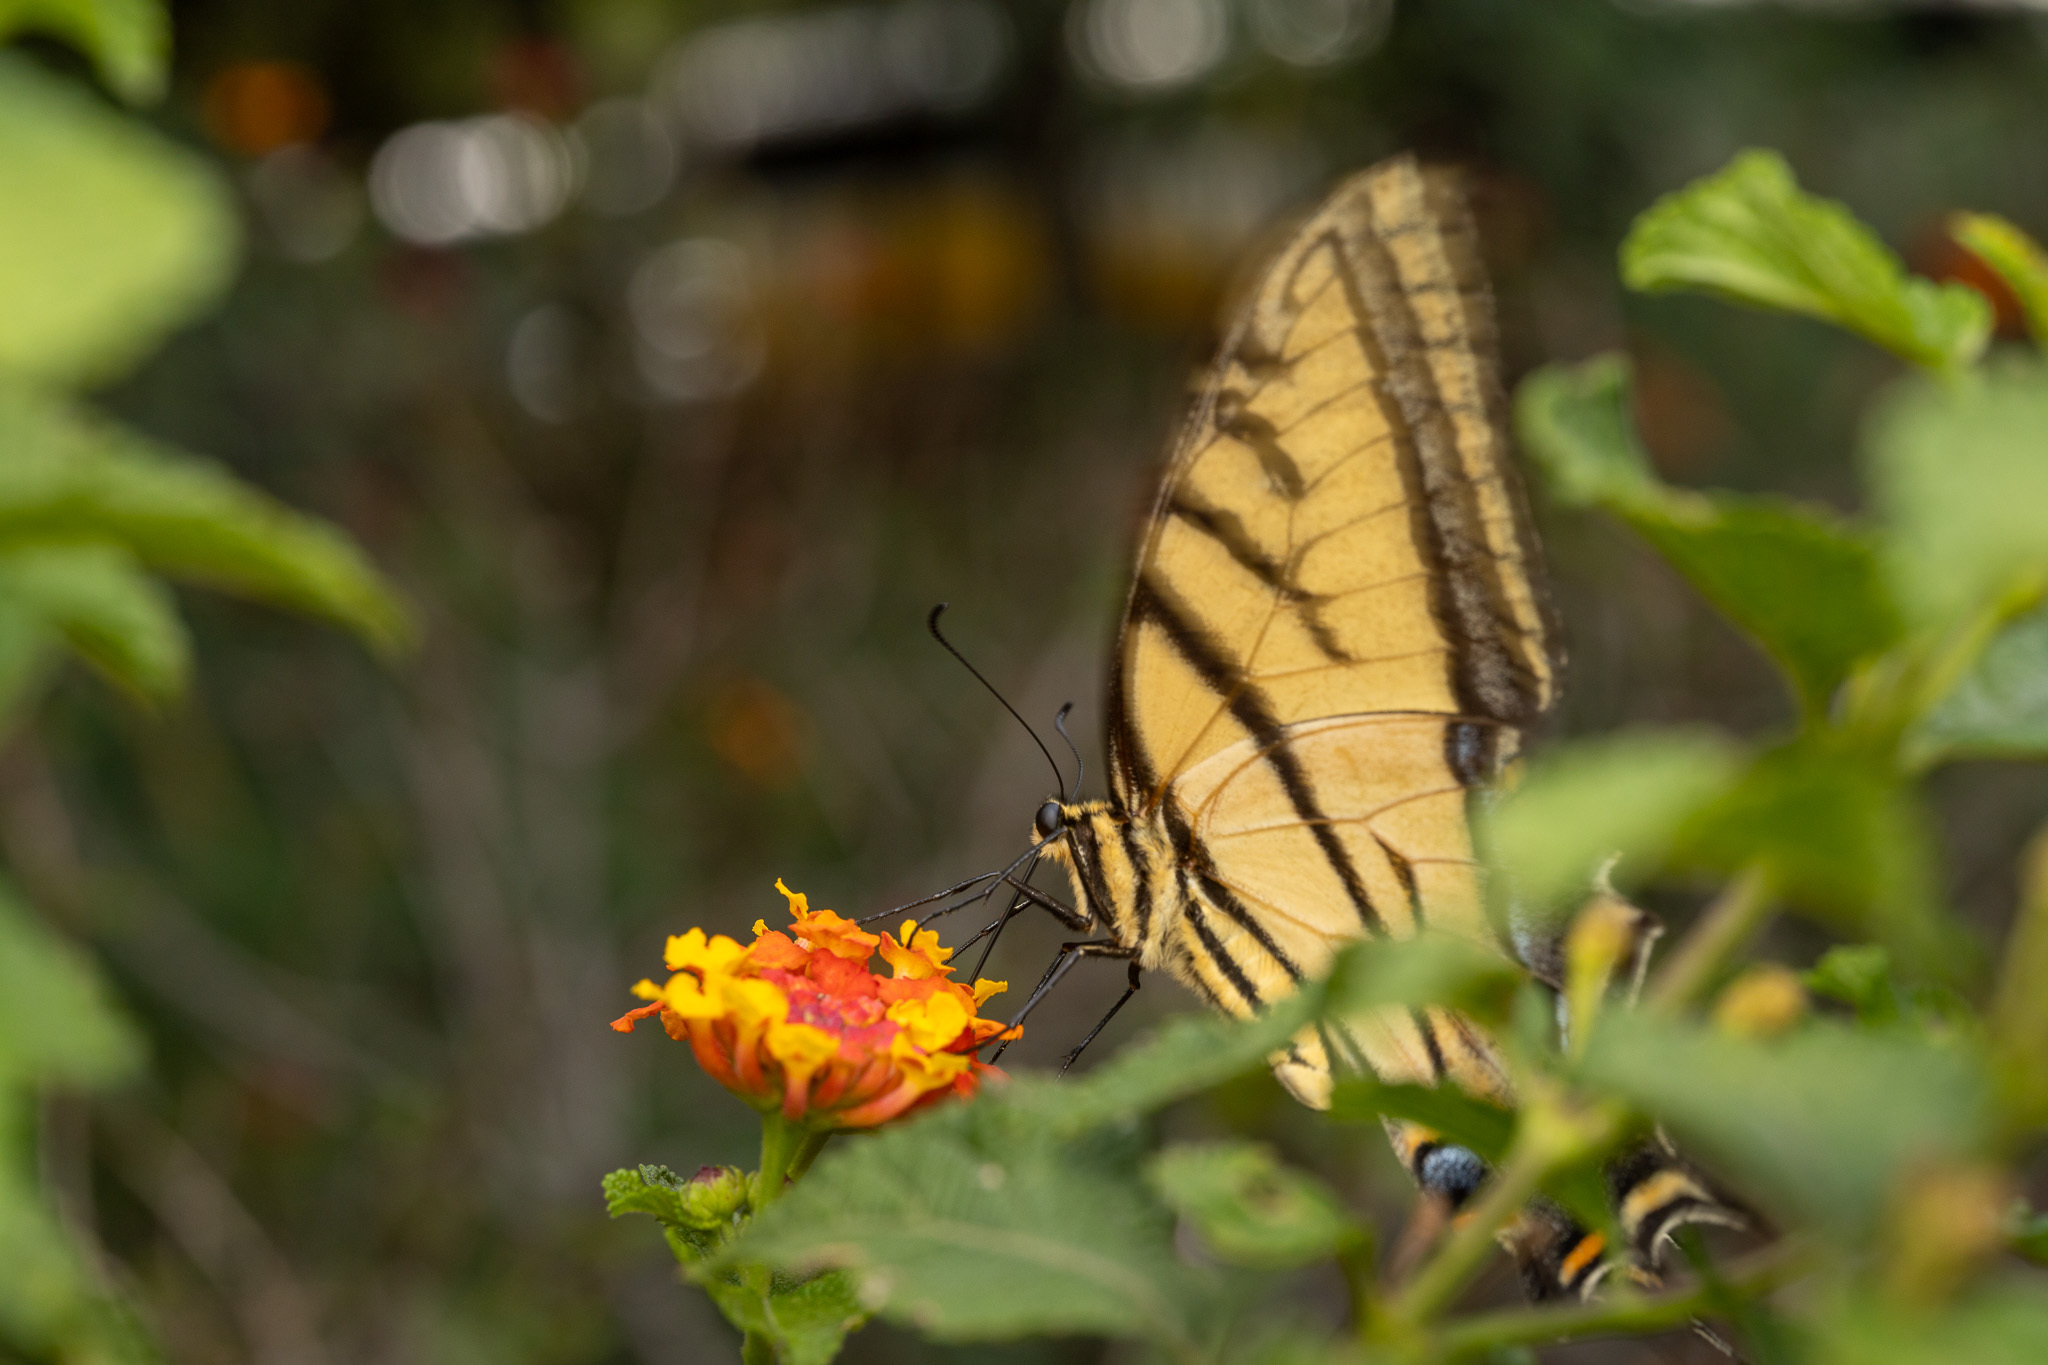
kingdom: Animalia
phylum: Arthropoda
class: Insecta
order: Lepidoptera
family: Papilionidae
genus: Papilio
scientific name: Papilio multicaudata
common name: Two-tailed tiger swallowtail
